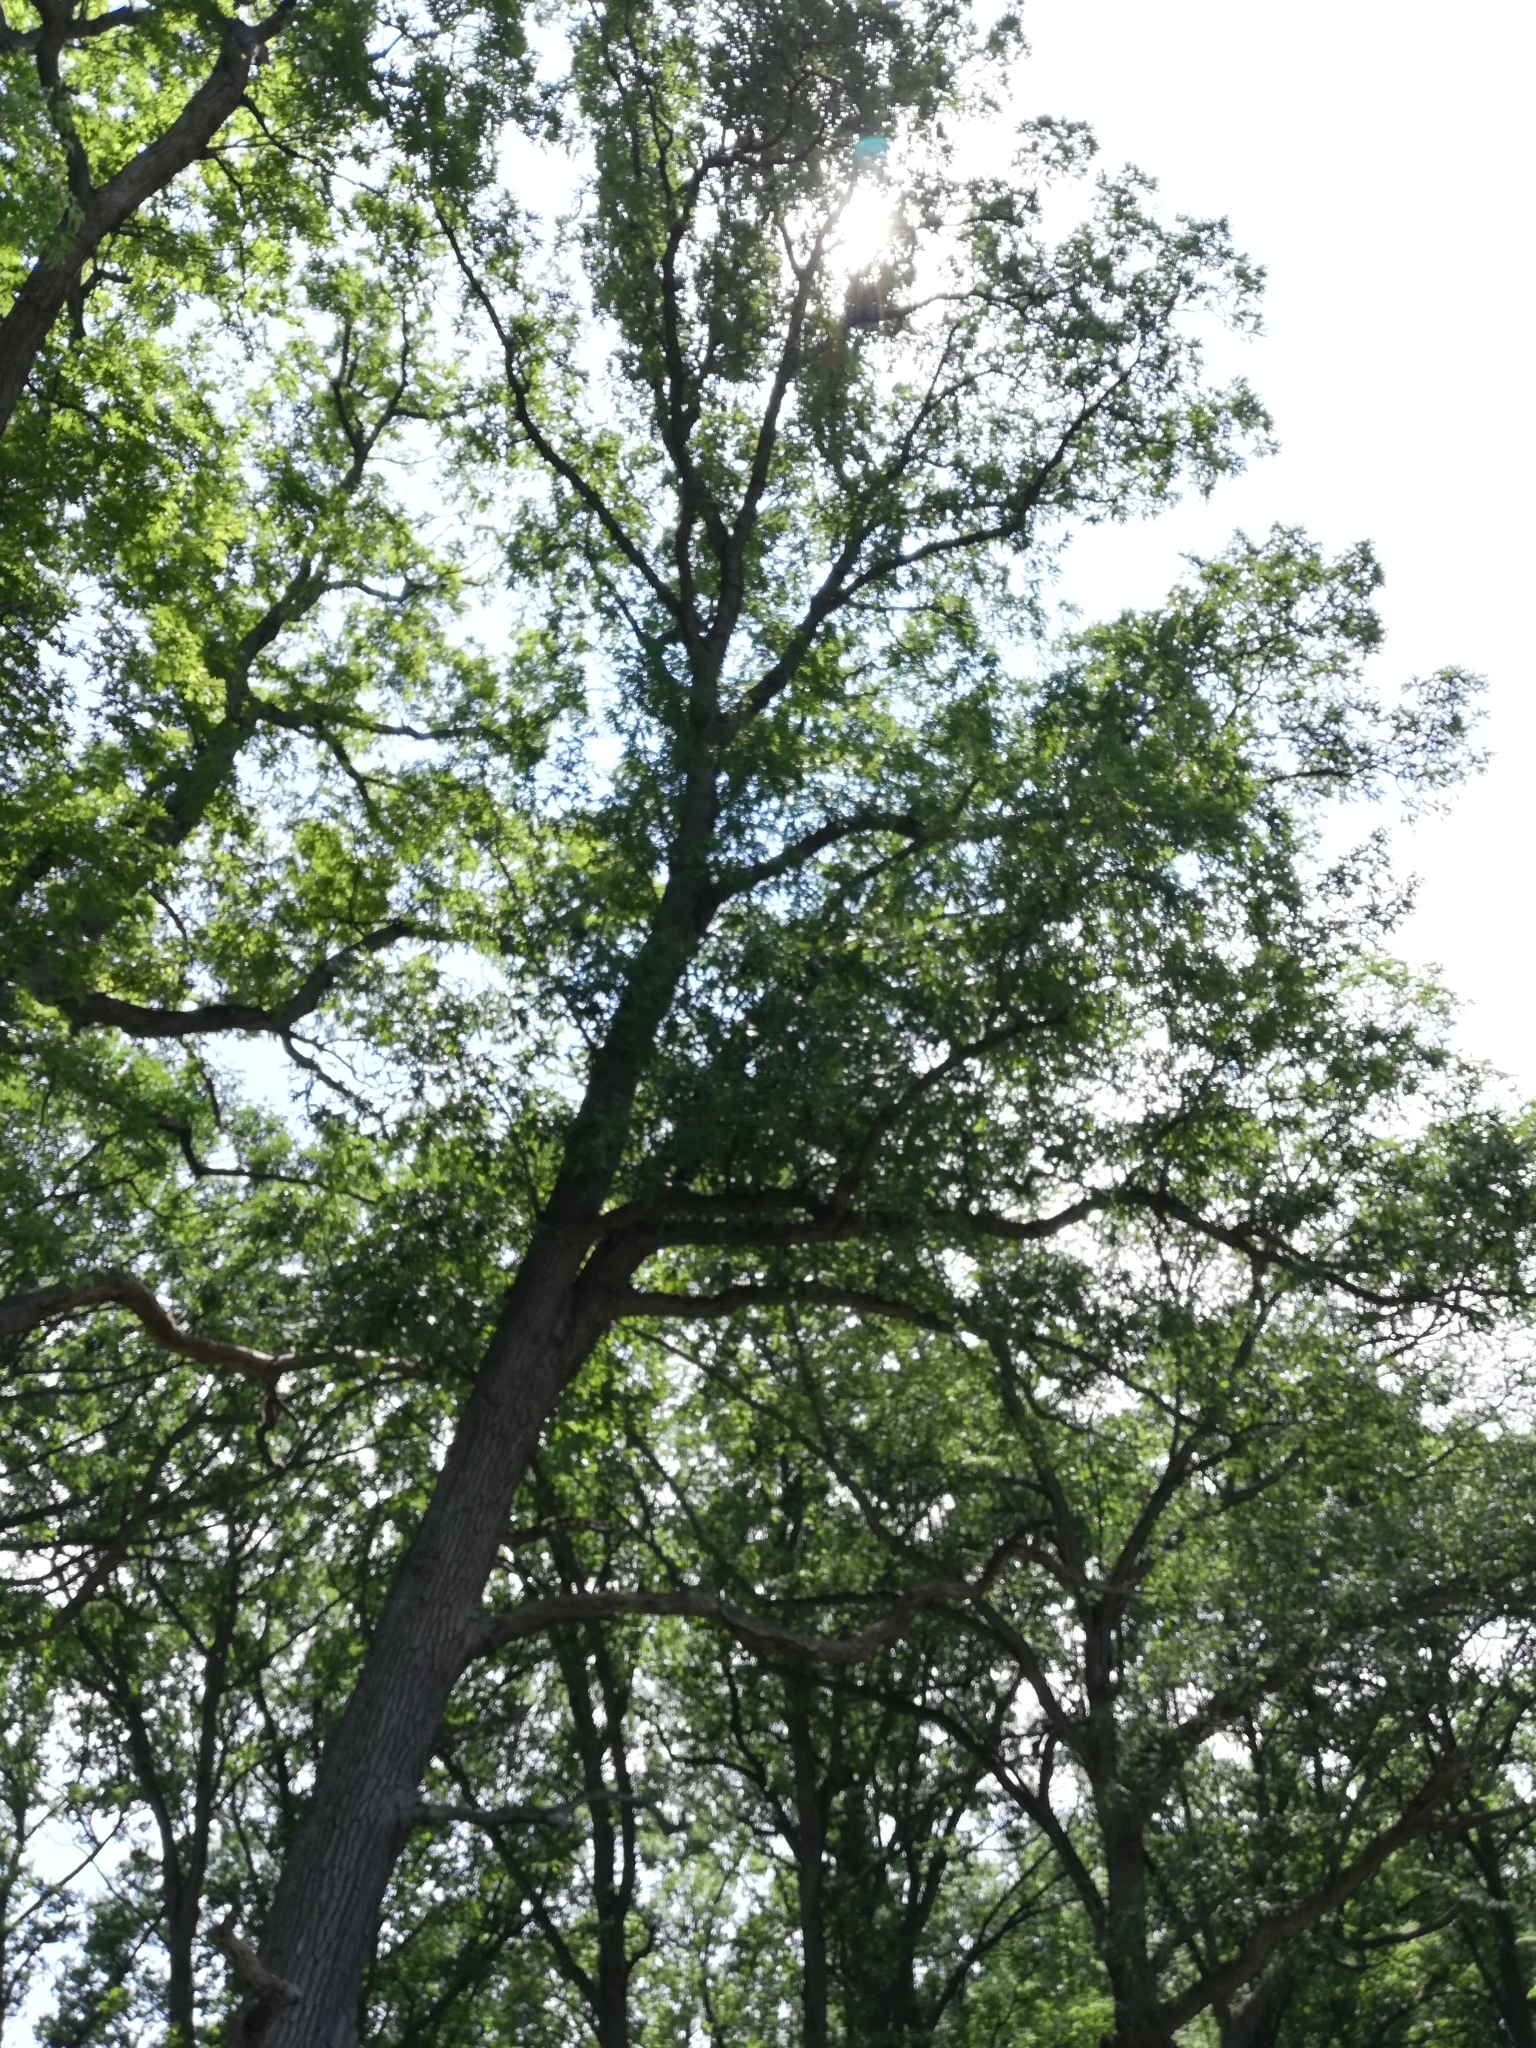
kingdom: Plantae
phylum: Tracheophyta
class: Magnoliopsida
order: Fagales
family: Fagaceae
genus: Quercus
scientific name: Quercus alba
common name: White oak
